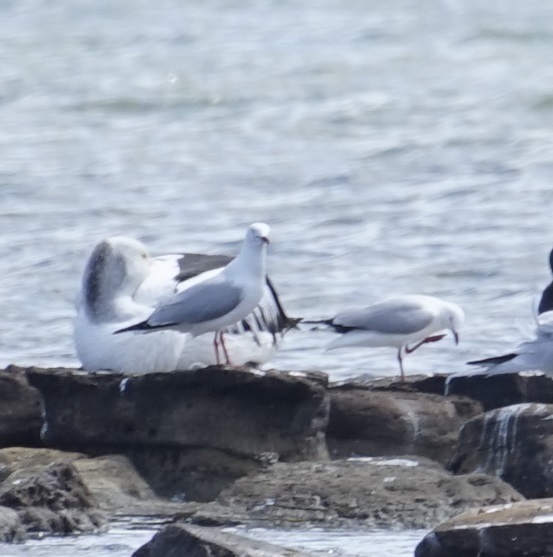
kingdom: Animalia
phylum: Chordata
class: Aves
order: Charadriiformes
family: Laridae
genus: Chroicocephalus
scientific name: Chroicocephalus novaehollandiae
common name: Silver gull
